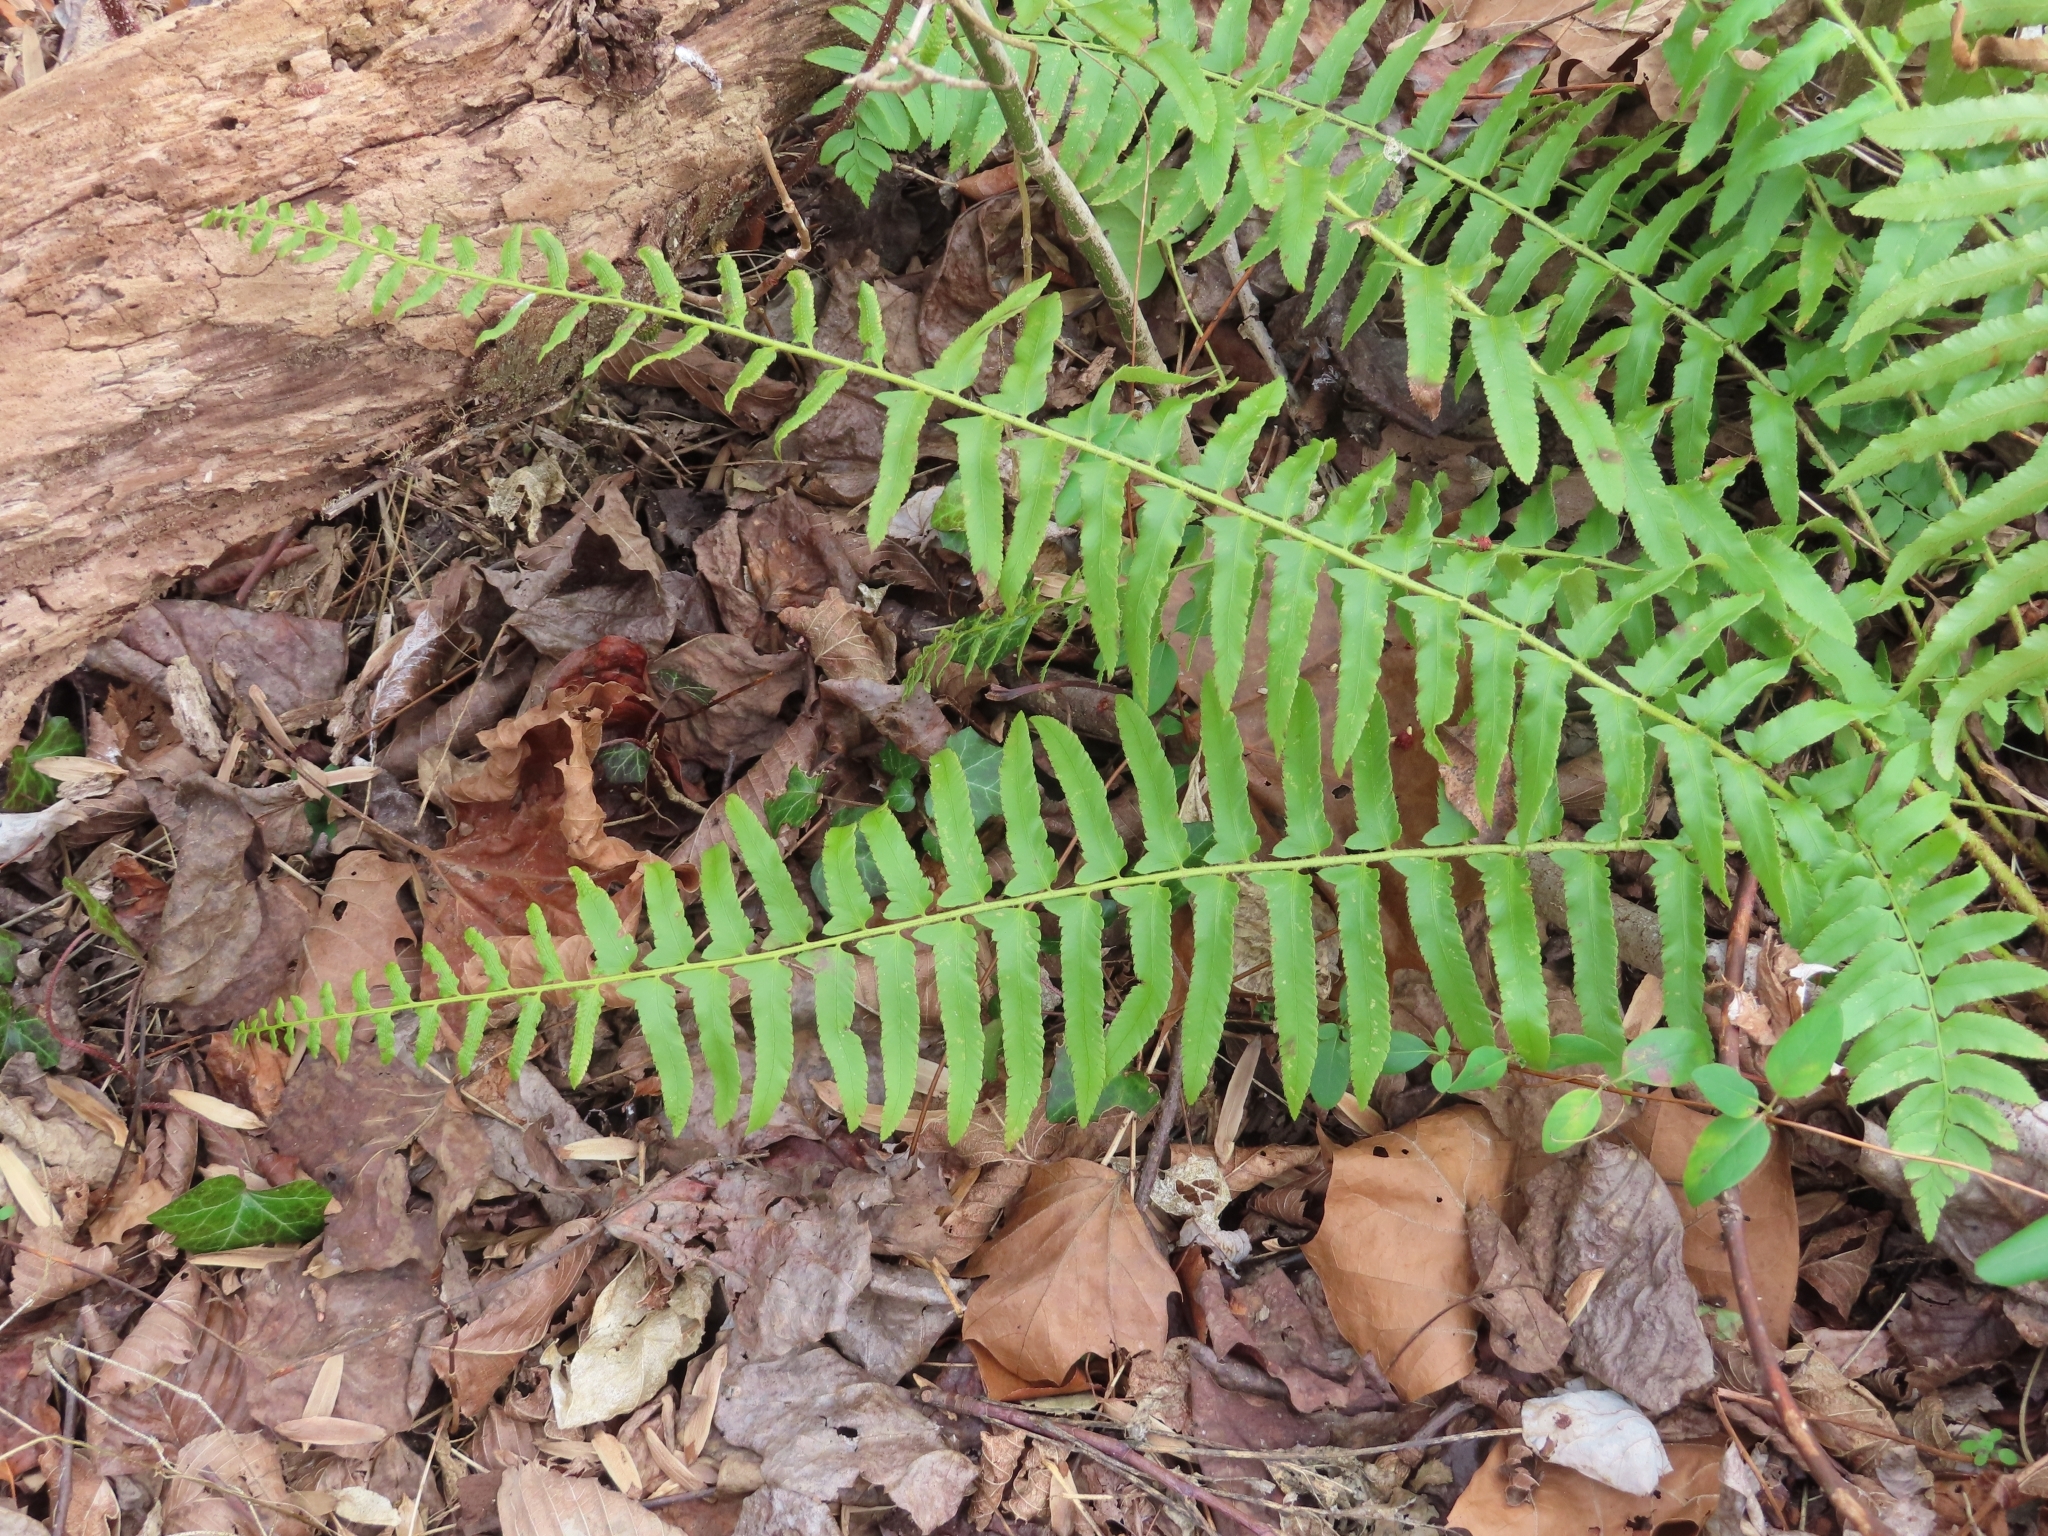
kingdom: Plantae
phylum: Tracheophyta
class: Polypodiopsida
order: Polypodiales
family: Dryopteridaceae
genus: Polystichum
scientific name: Polystichum acrostichoides
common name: Christmas fern
